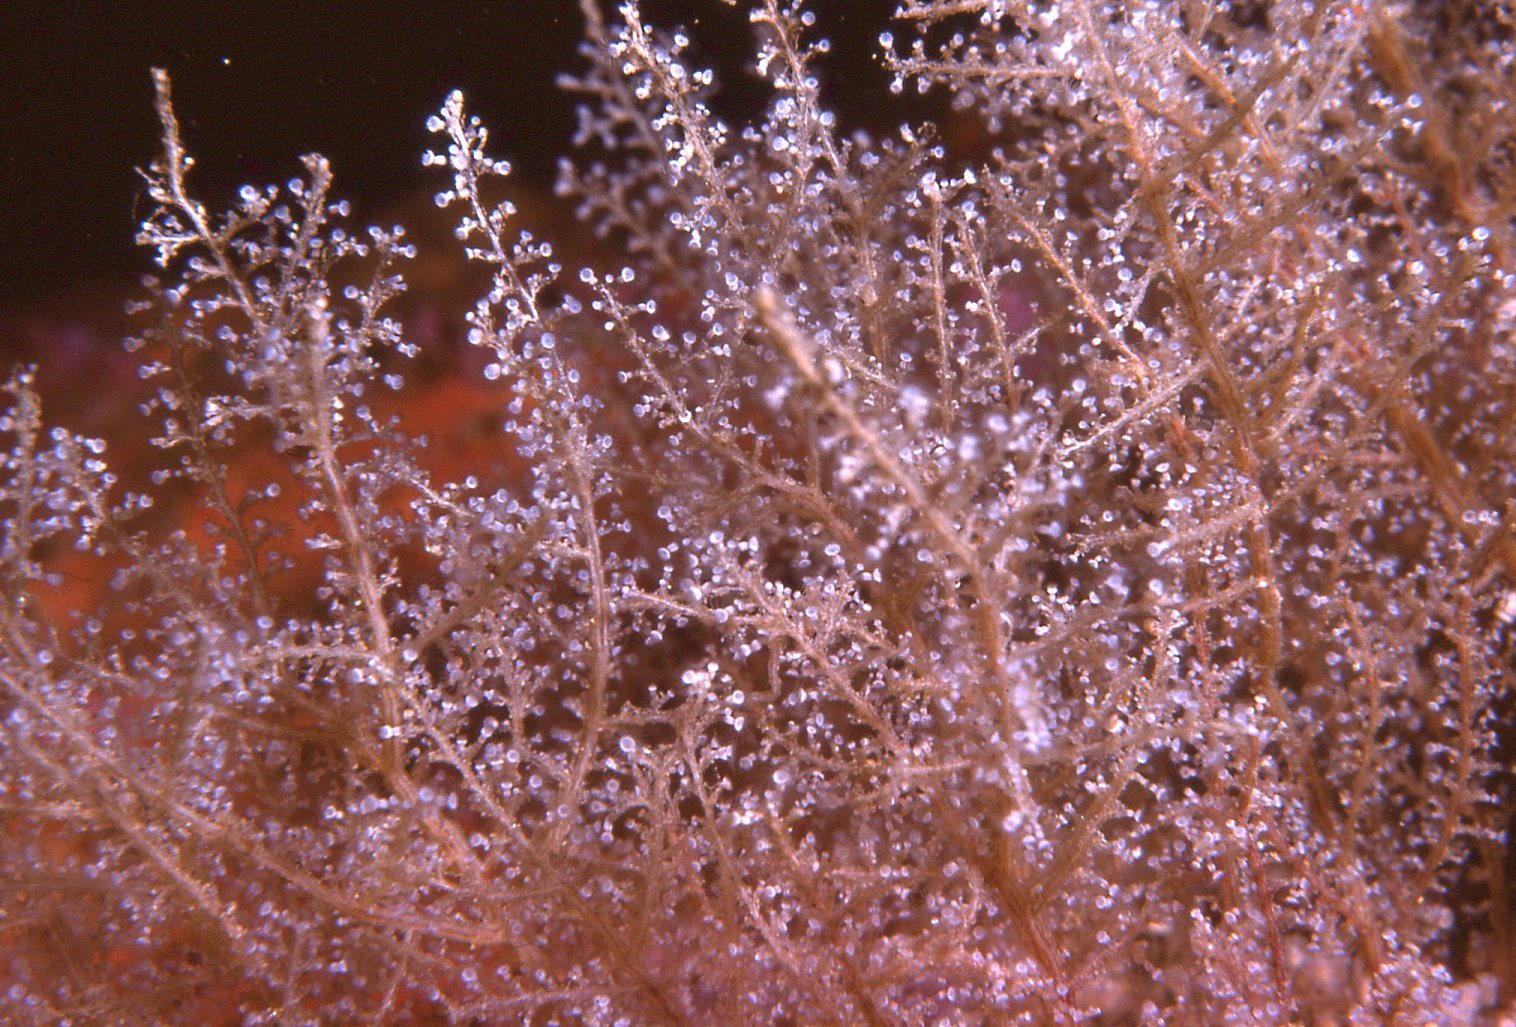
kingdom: Animalia
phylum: Cnidaria
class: Hydrozoa
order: Leptothecata
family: Phylactothecidae
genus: Hydrodendron
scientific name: Hydrodendron australe
